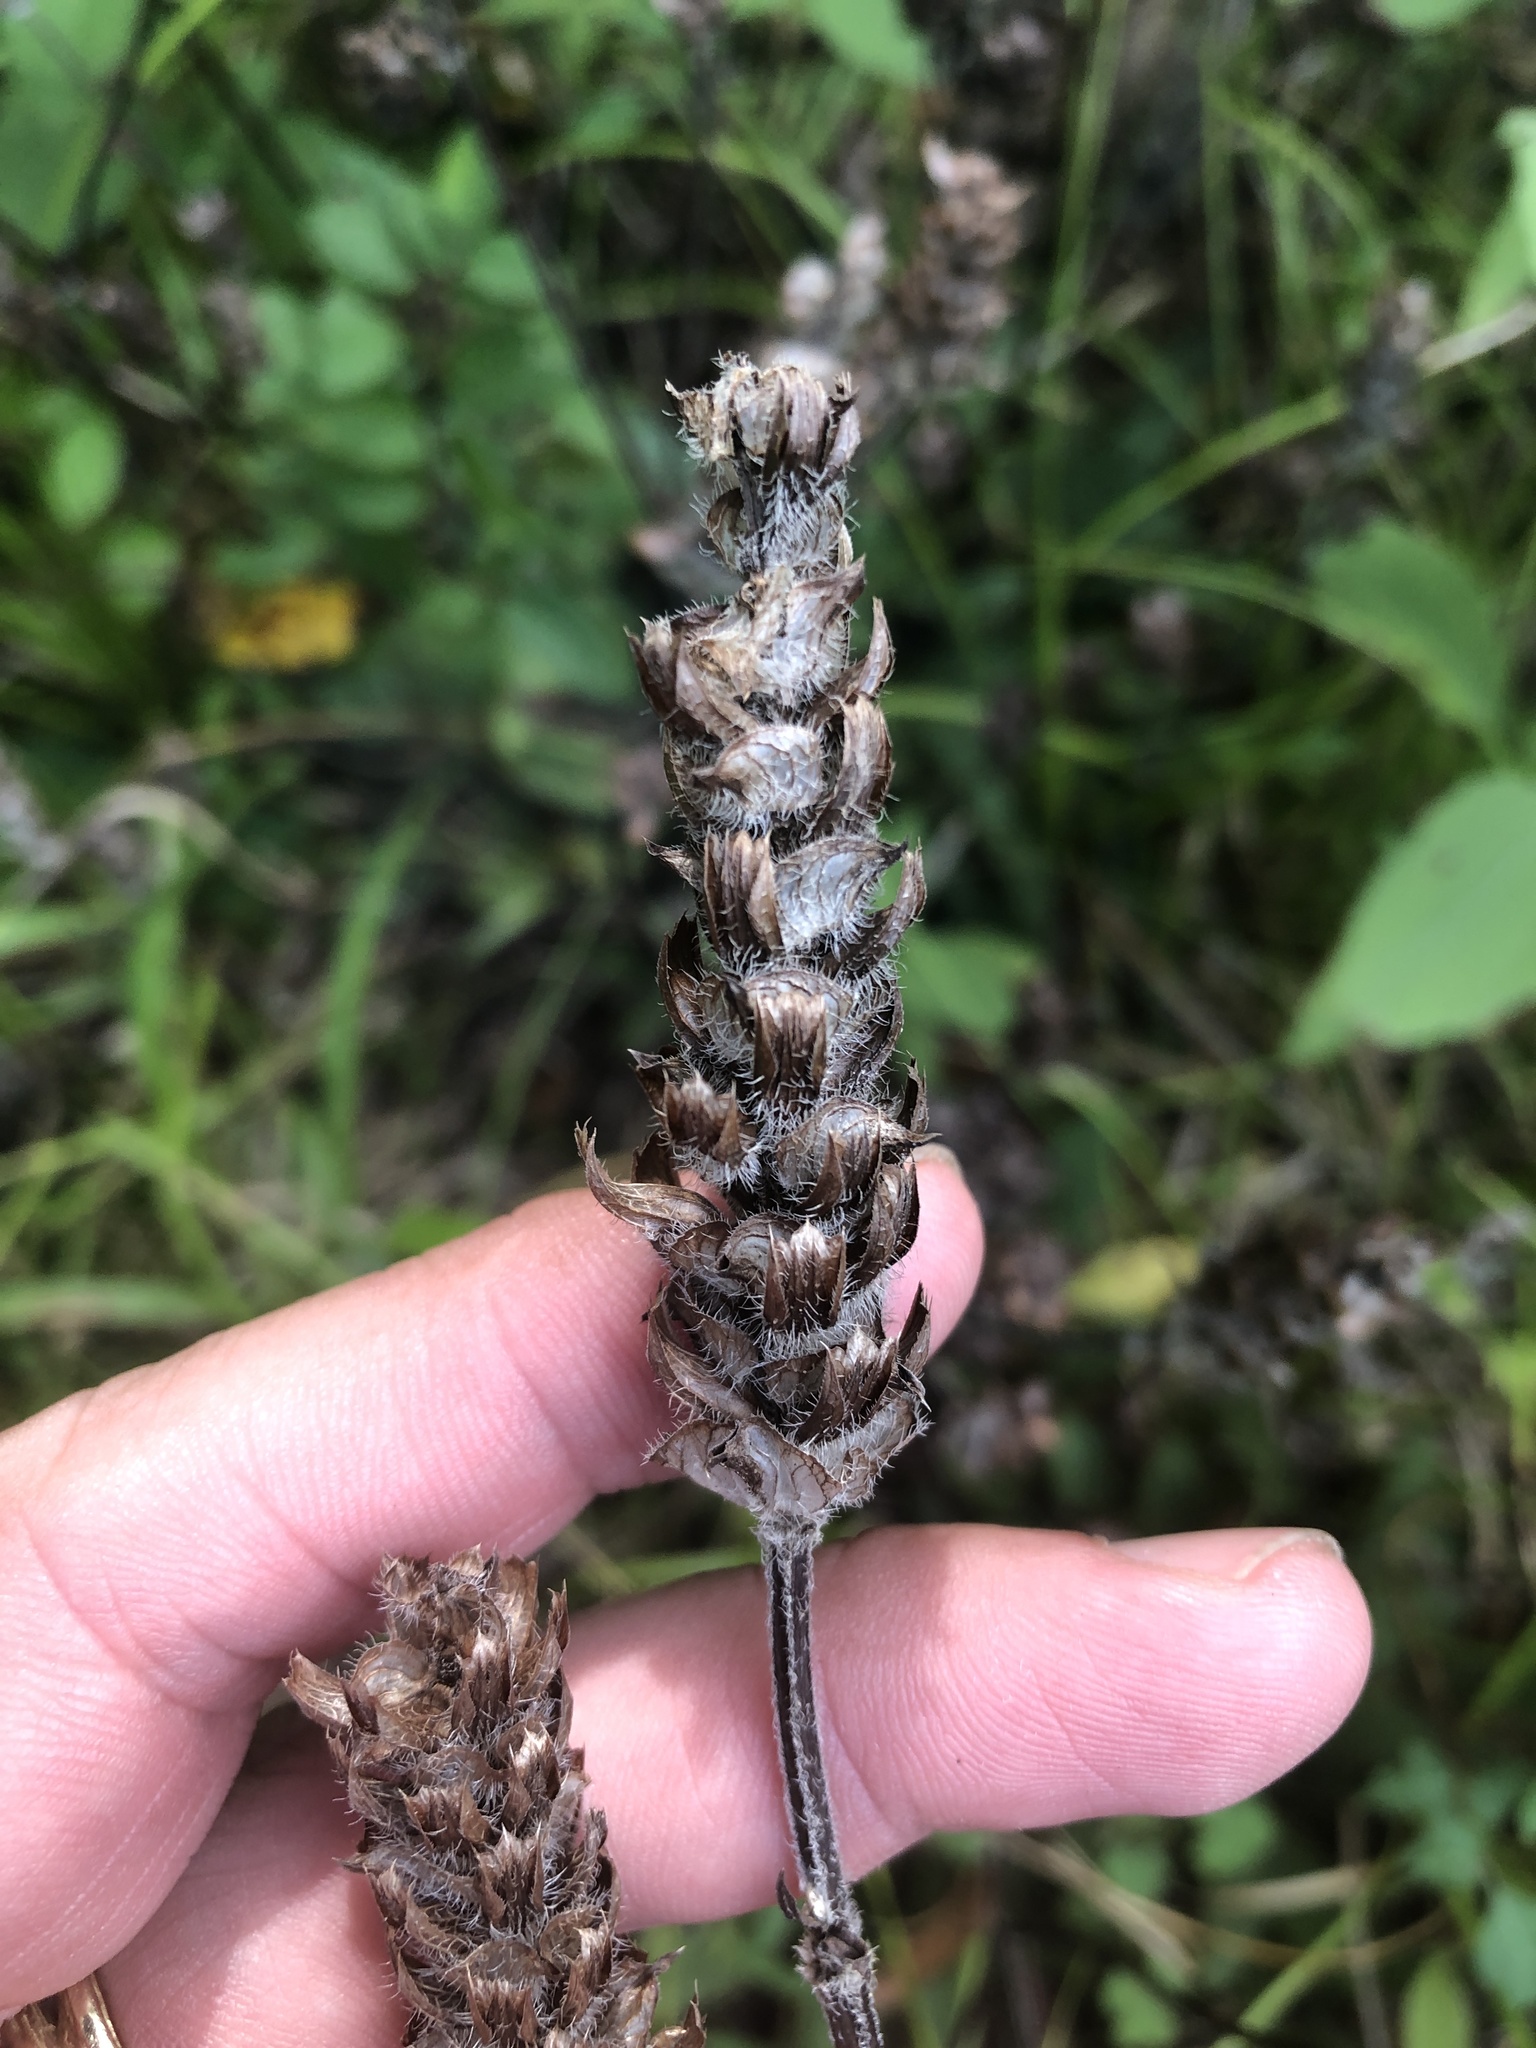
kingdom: Plantae
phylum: Tracheophyta
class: Magnoliopsida
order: Lamiales
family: Lamiaceae
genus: Prunella
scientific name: Prunella vulgaris
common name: Heal-all
